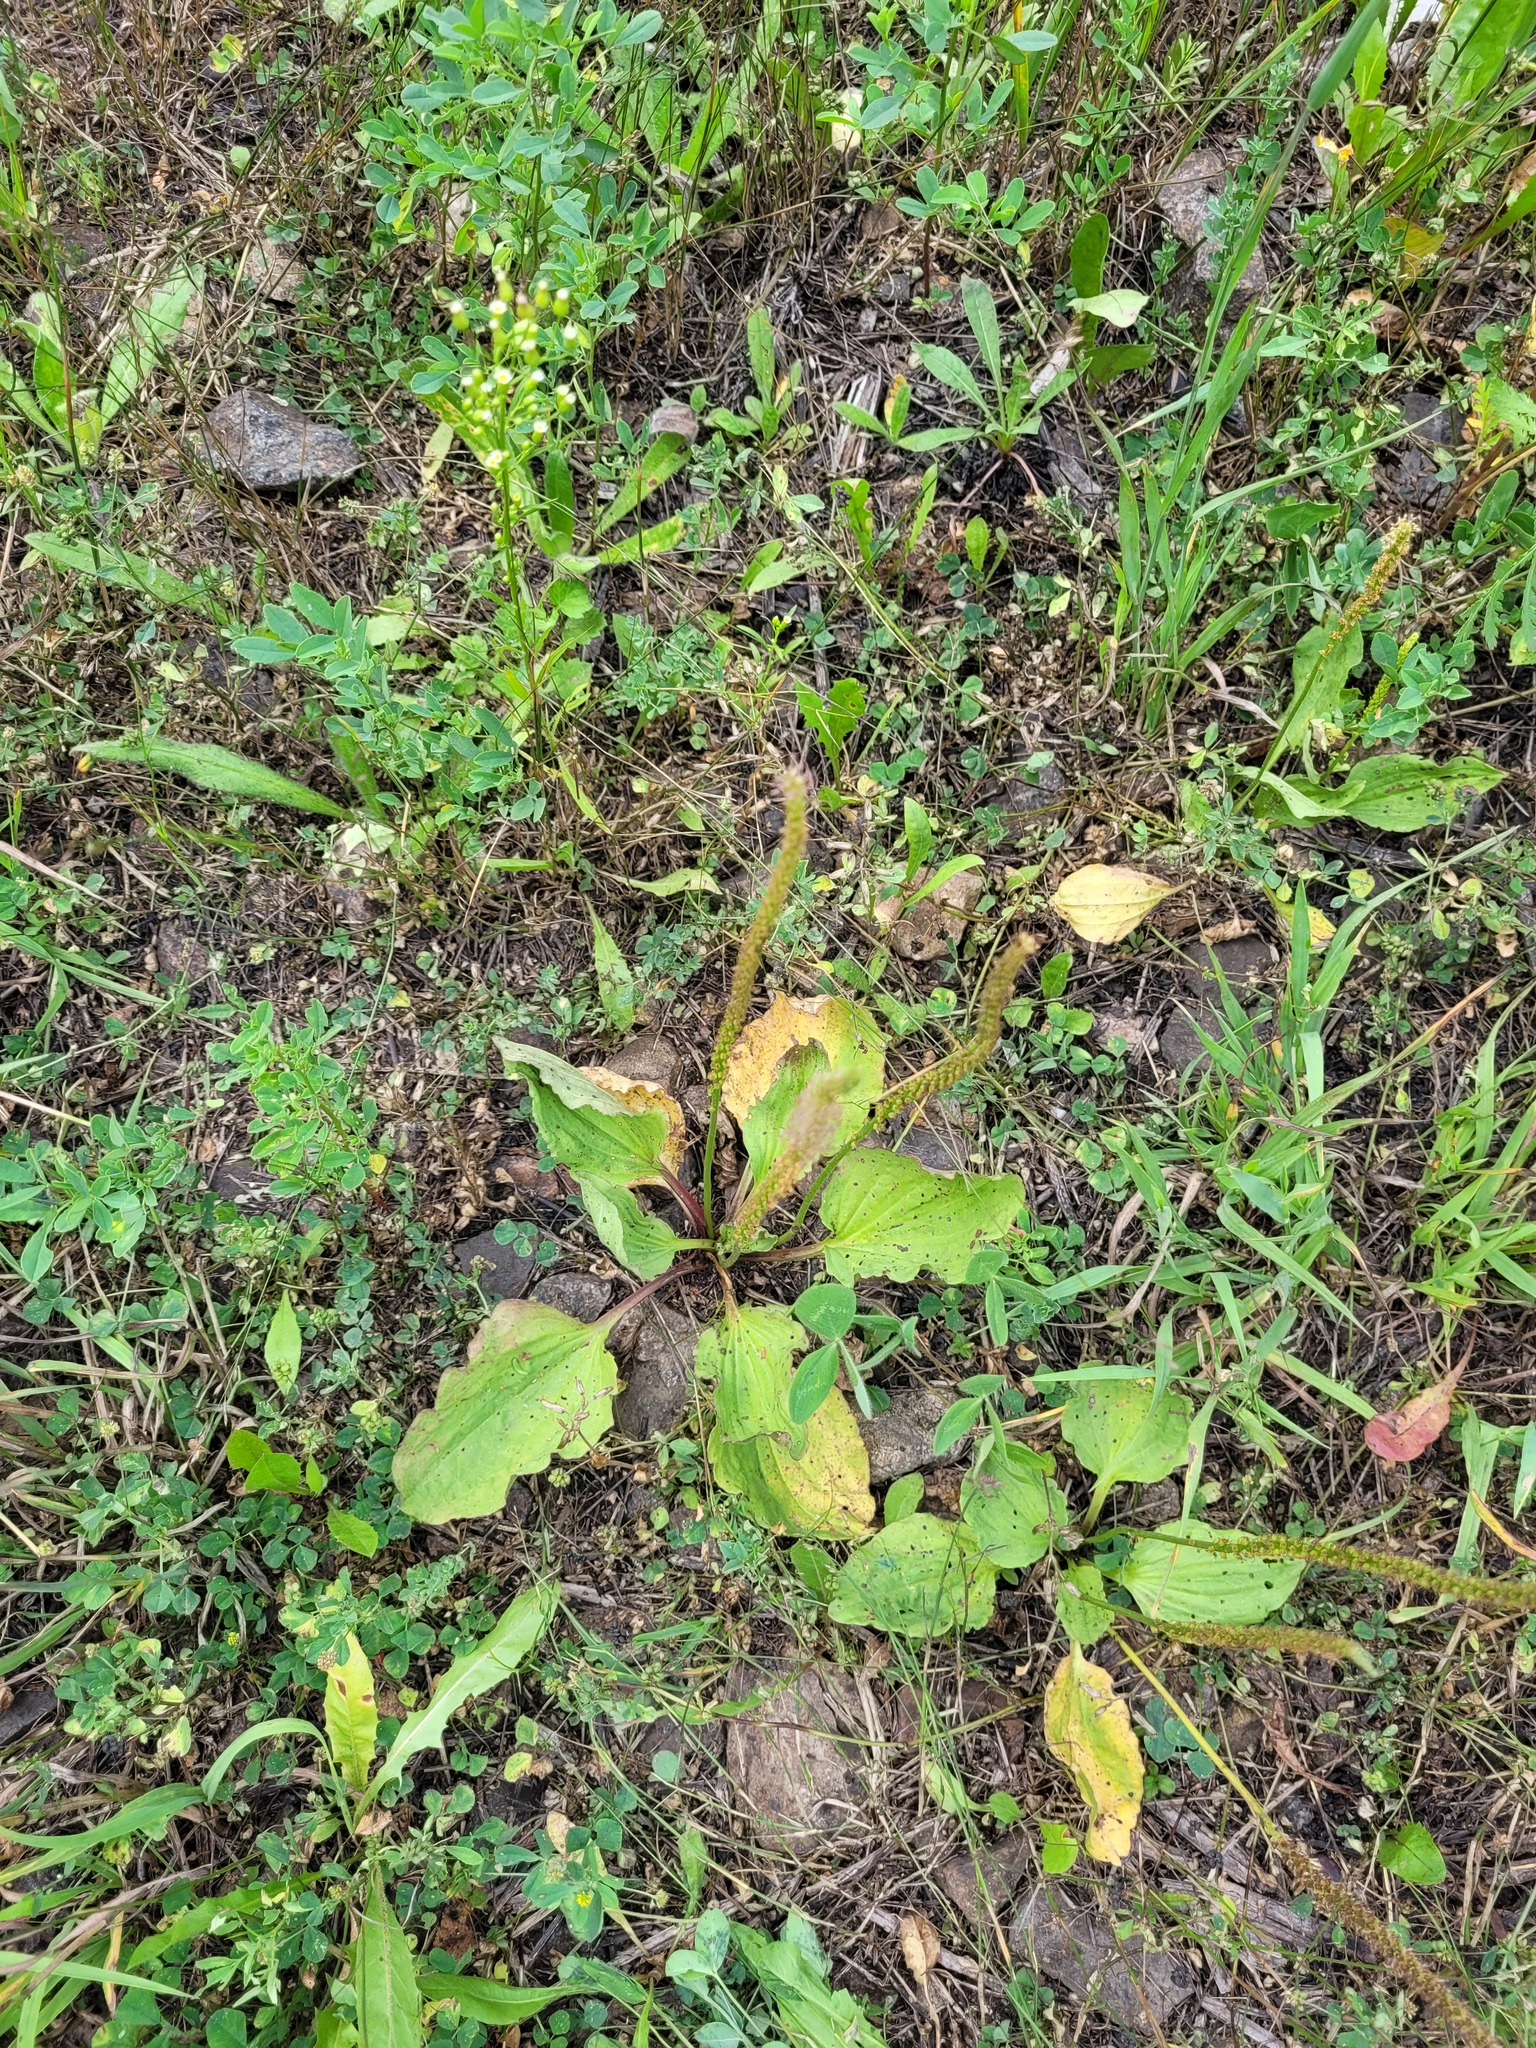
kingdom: Plantae
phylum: Tracheophyta
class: Magnoliopsida
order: Lamiales
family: Plantaginaceae
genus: Plantago
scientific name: Plantago major
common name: Common plantain
